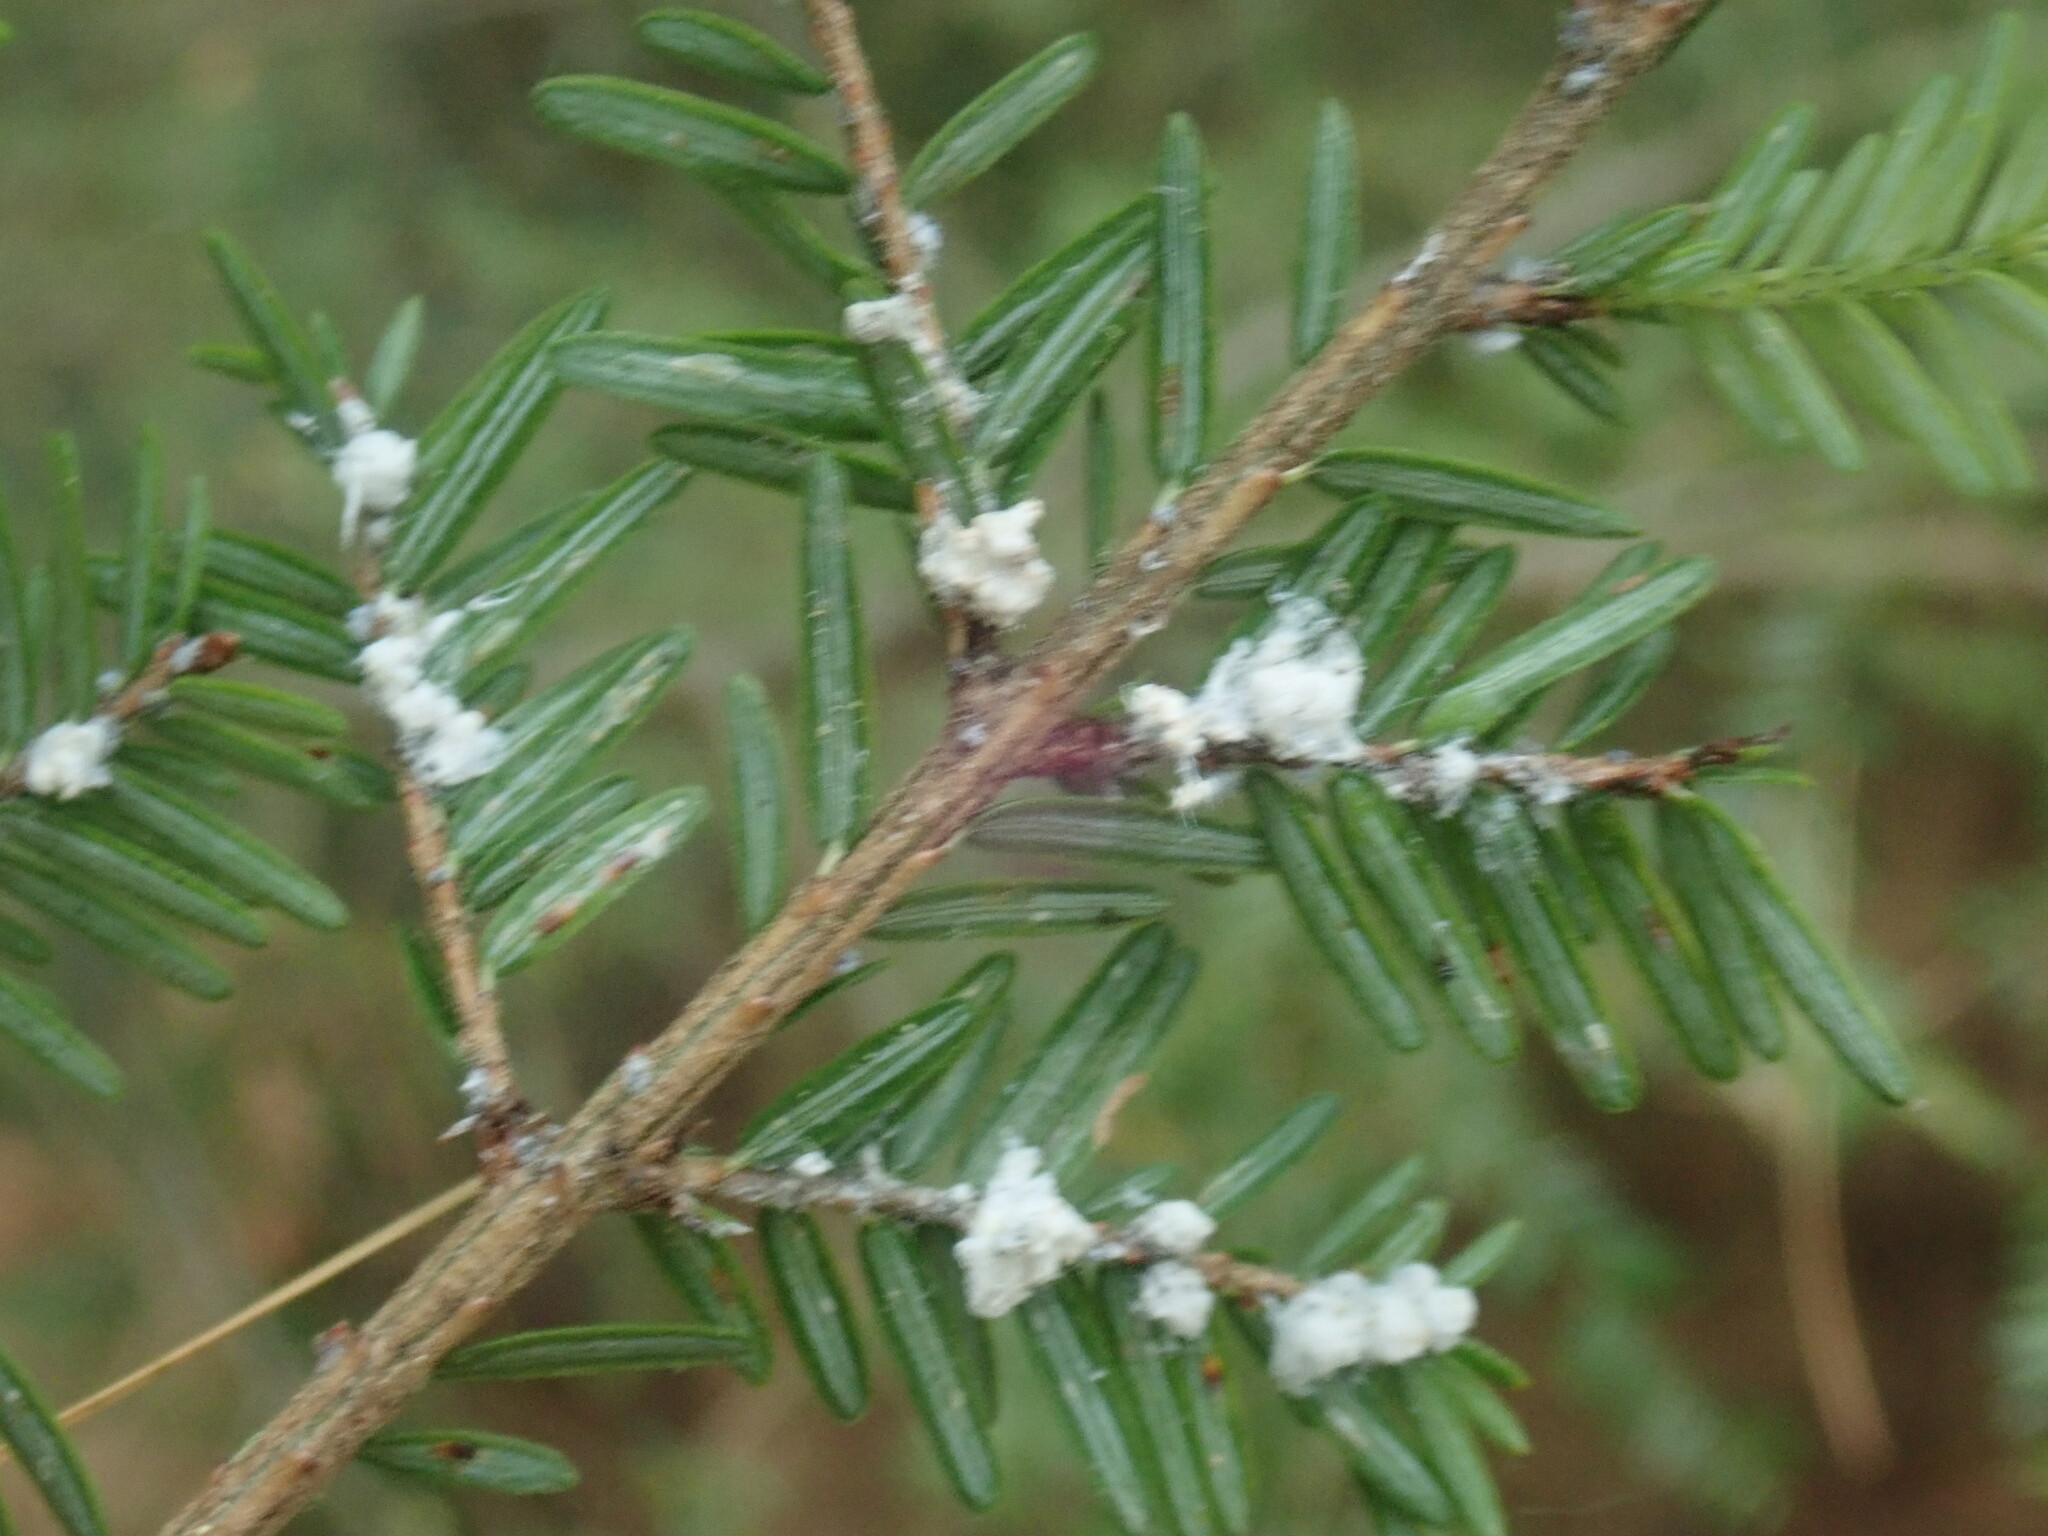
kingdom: Animalia
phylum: Arthropoda
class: Insecta
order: Hemiptera
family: Adelgidae
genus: Adelges
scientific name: Adelges tsugae
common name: Hemlock woolly adelgid
